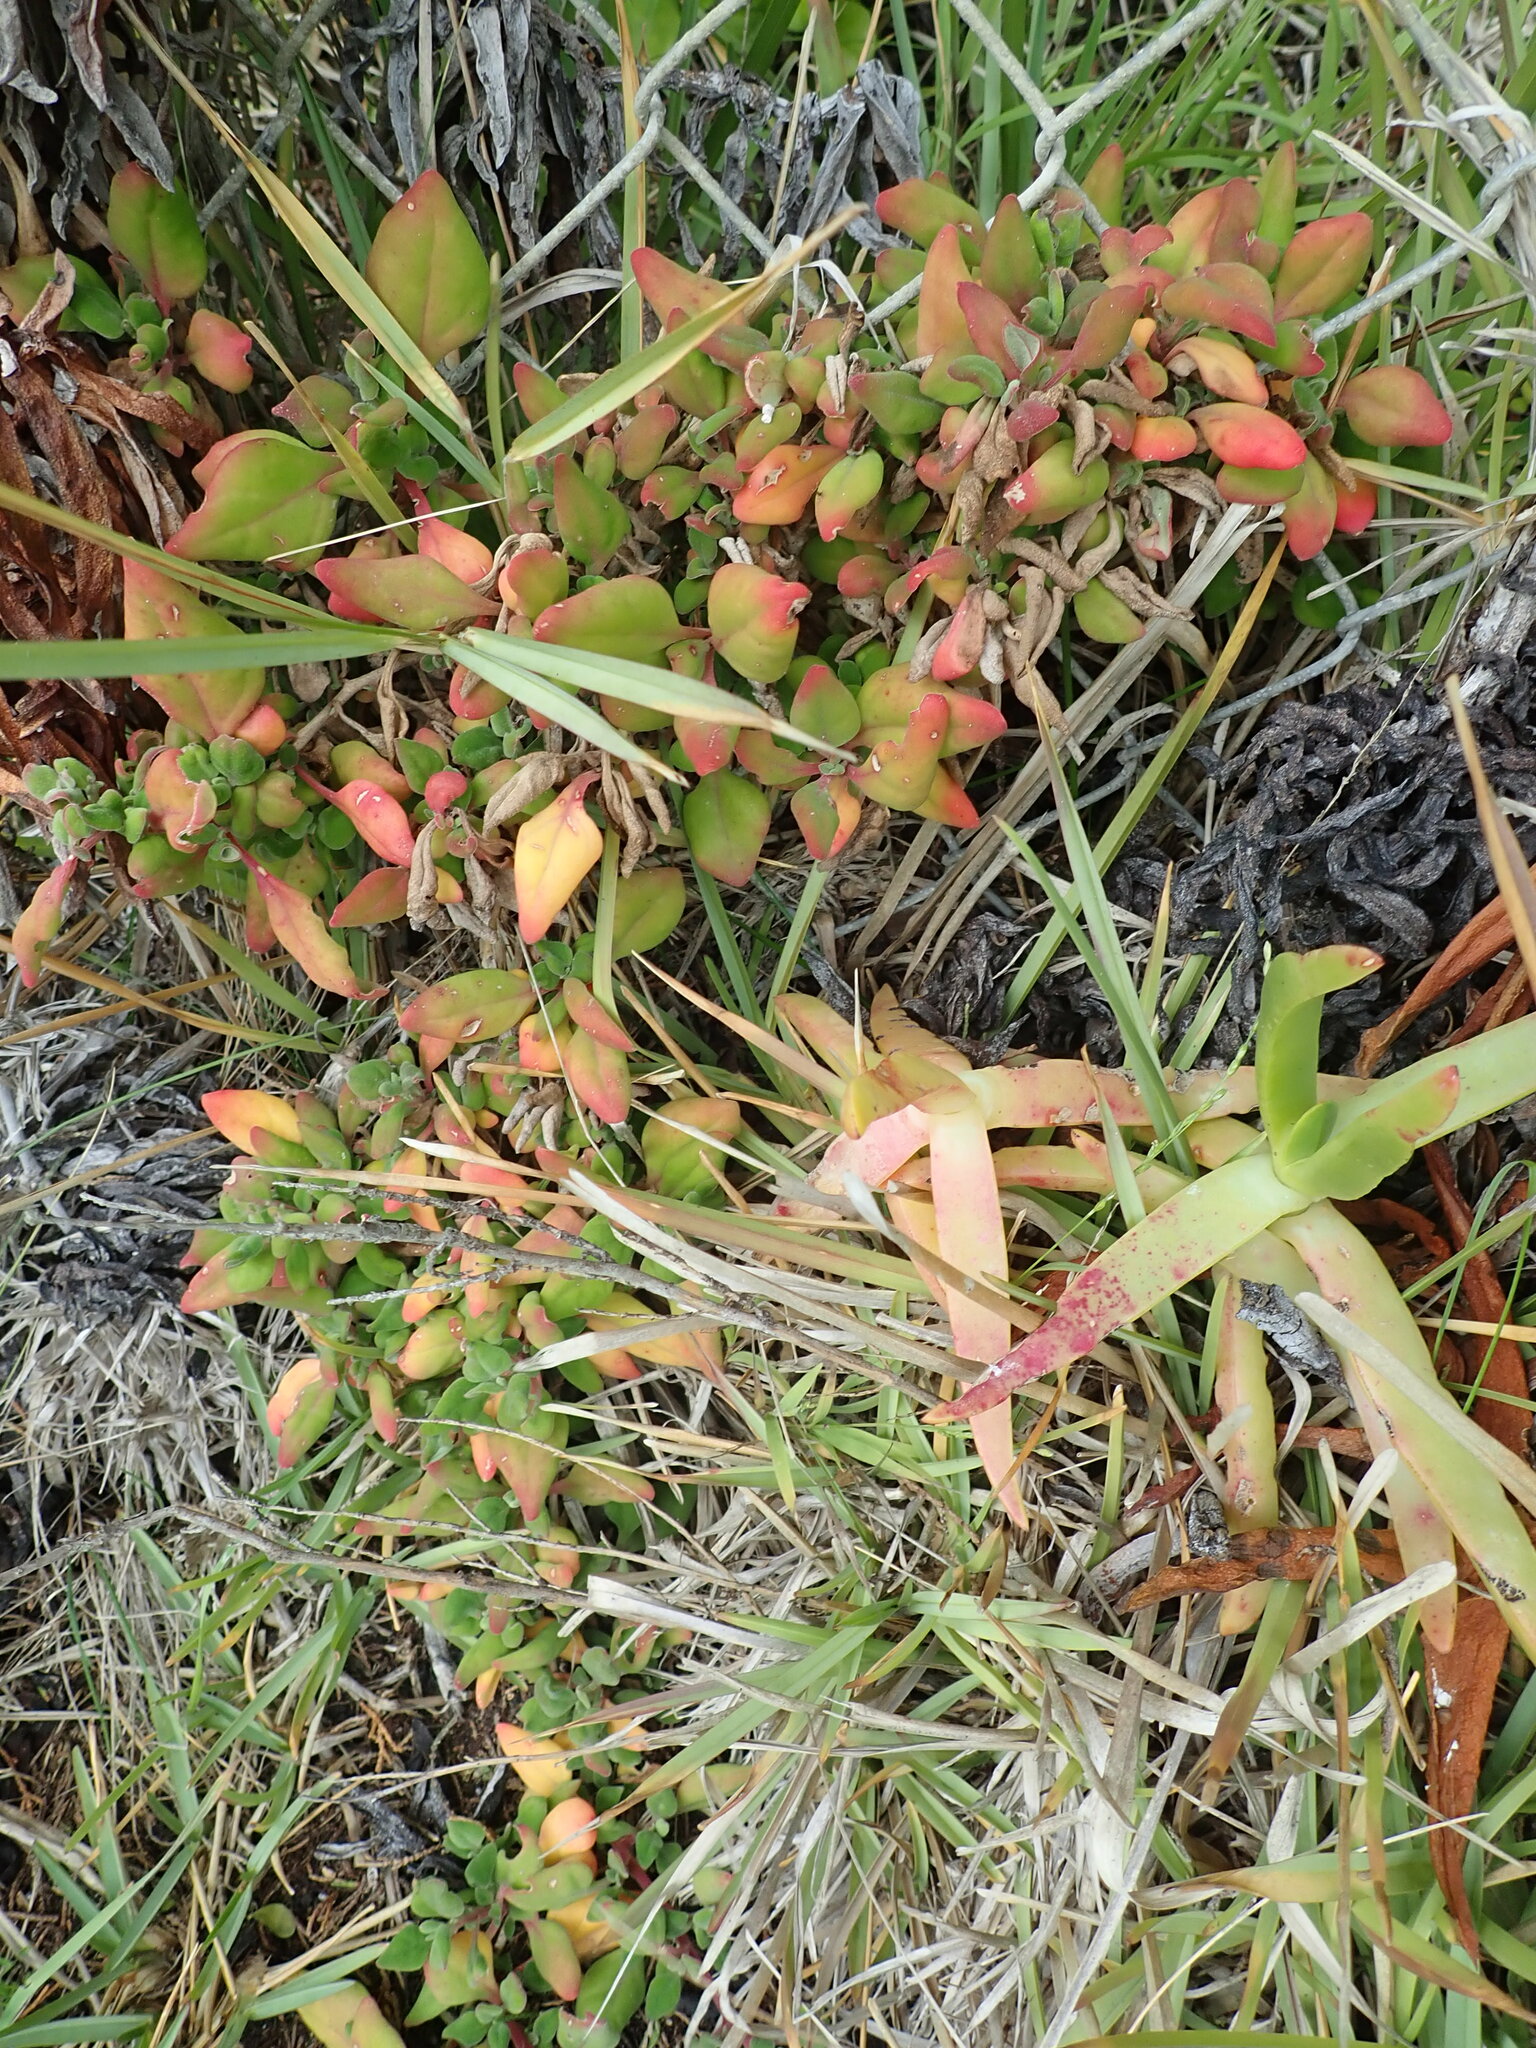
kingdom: Plantae
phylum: Tracheophyta
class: Magnoliopsida
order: Caryophyllales
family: Aizoaceae
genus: Tetragonia
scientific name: Tetragonia implexicoma
